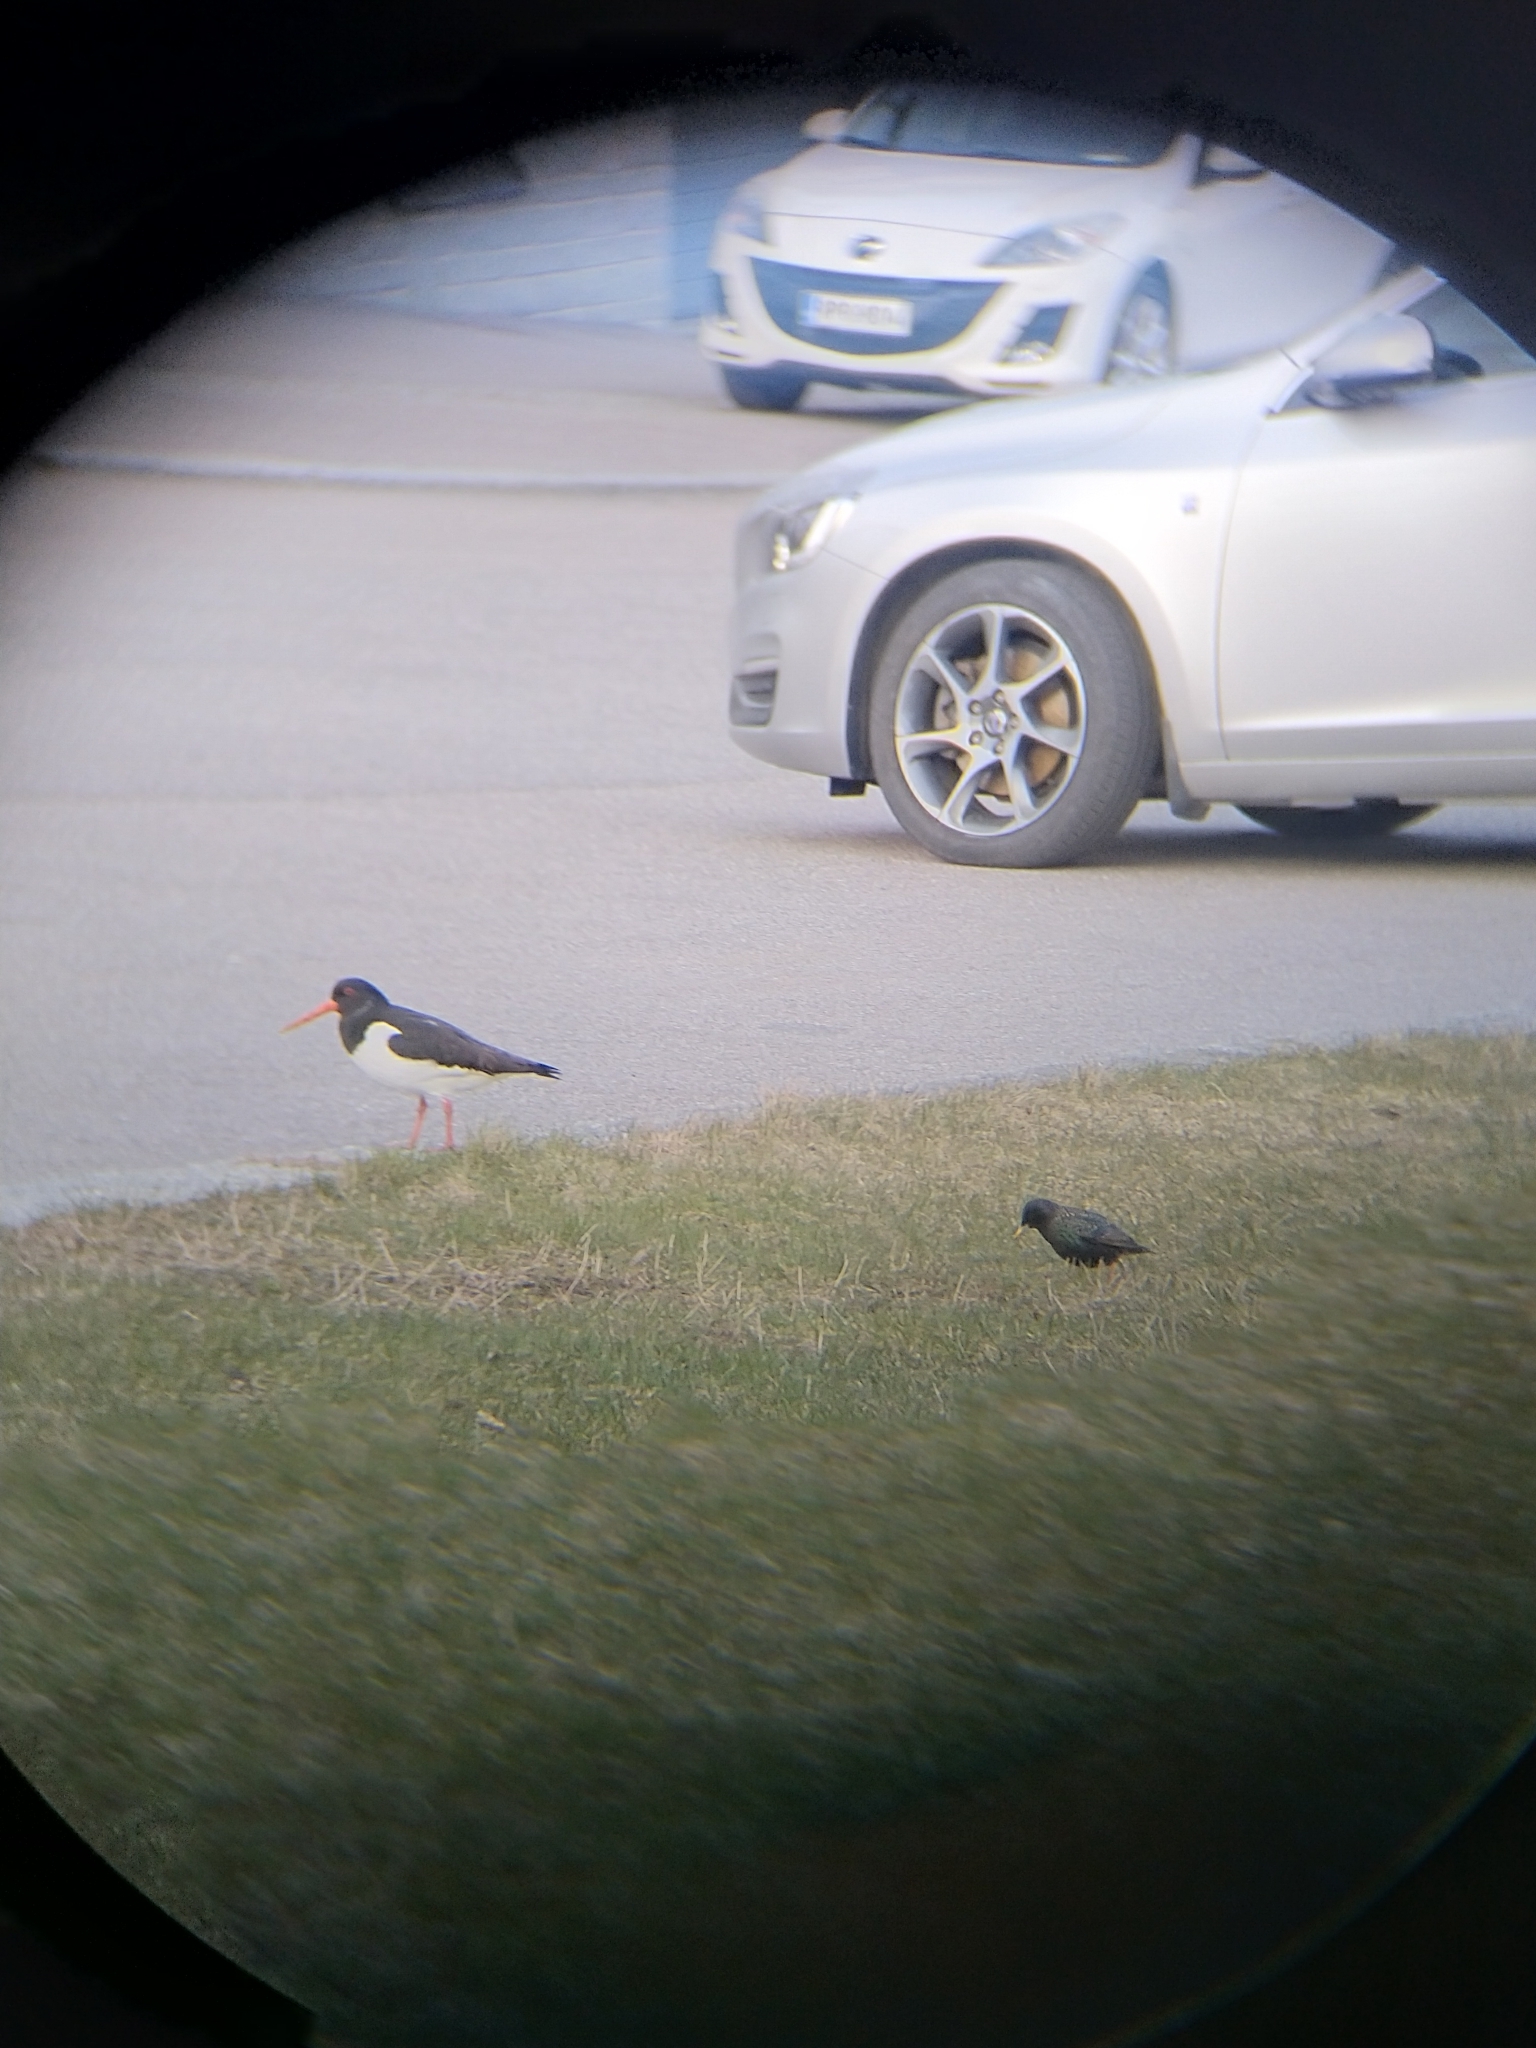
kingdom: Animalia
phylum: Chordata
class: Aves
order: Charadriiformes
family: Haematopodidae
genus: Haematopus
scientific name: Haematopus ostralegus
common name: Eurasian oystercatcher
